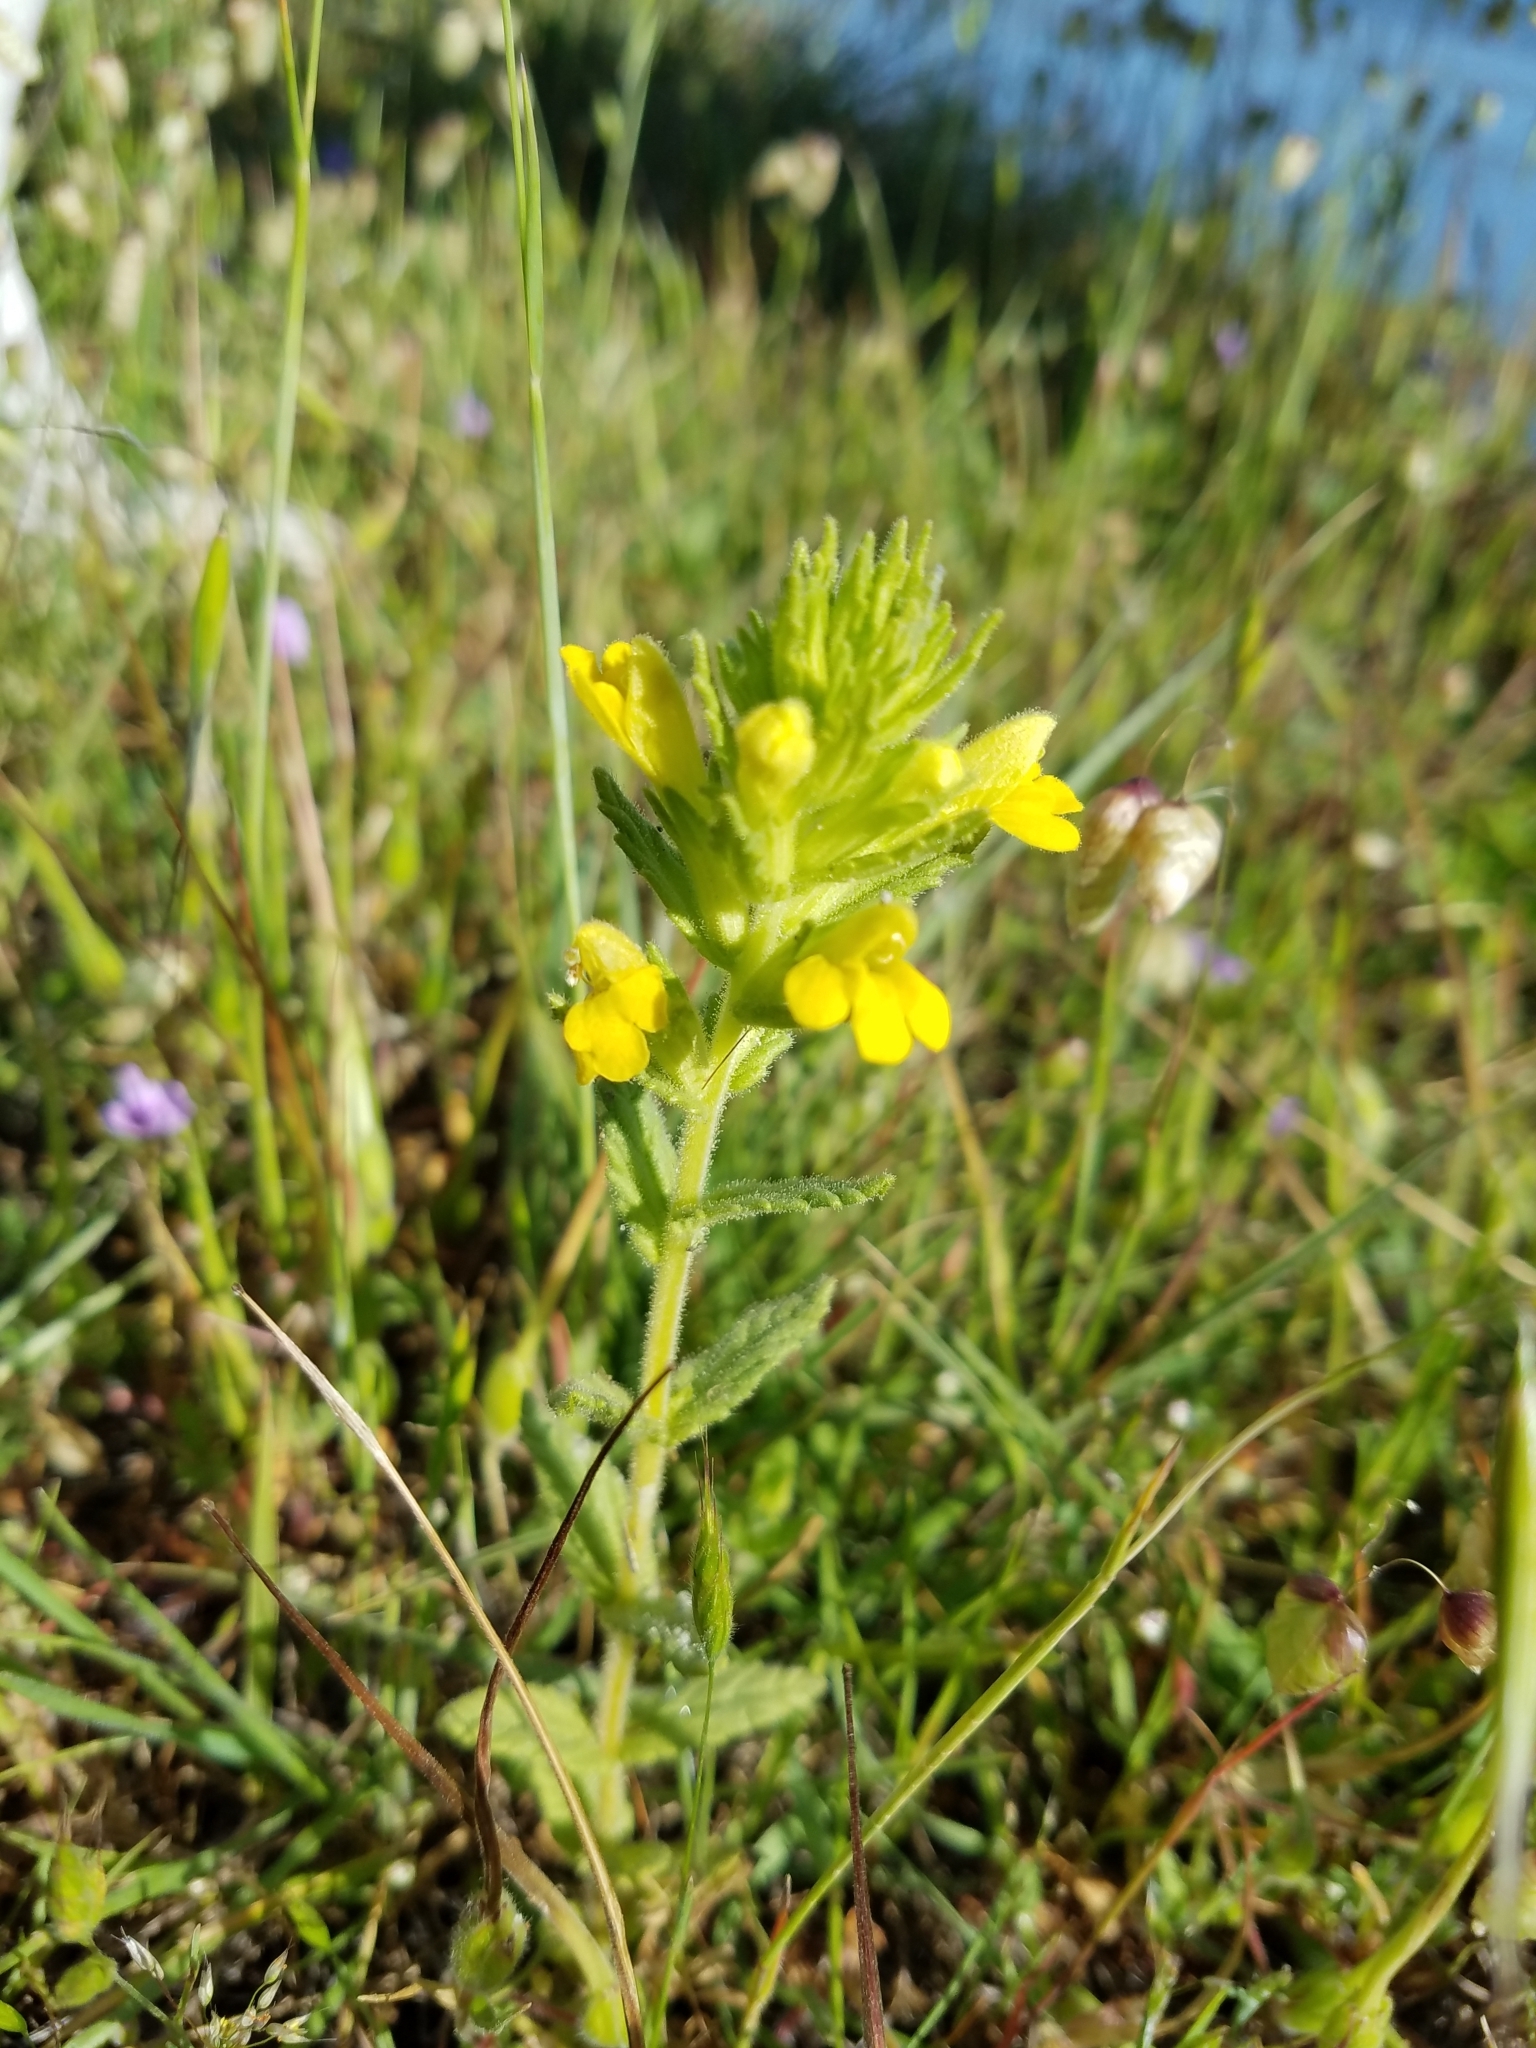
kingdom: Plantae
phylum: Tracheophyta
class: Magnoliopsida
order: Lamiales
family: Orobanchaceae
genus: Bellardia
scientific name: Bellardia viscosa
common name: Sticky parentucellia
